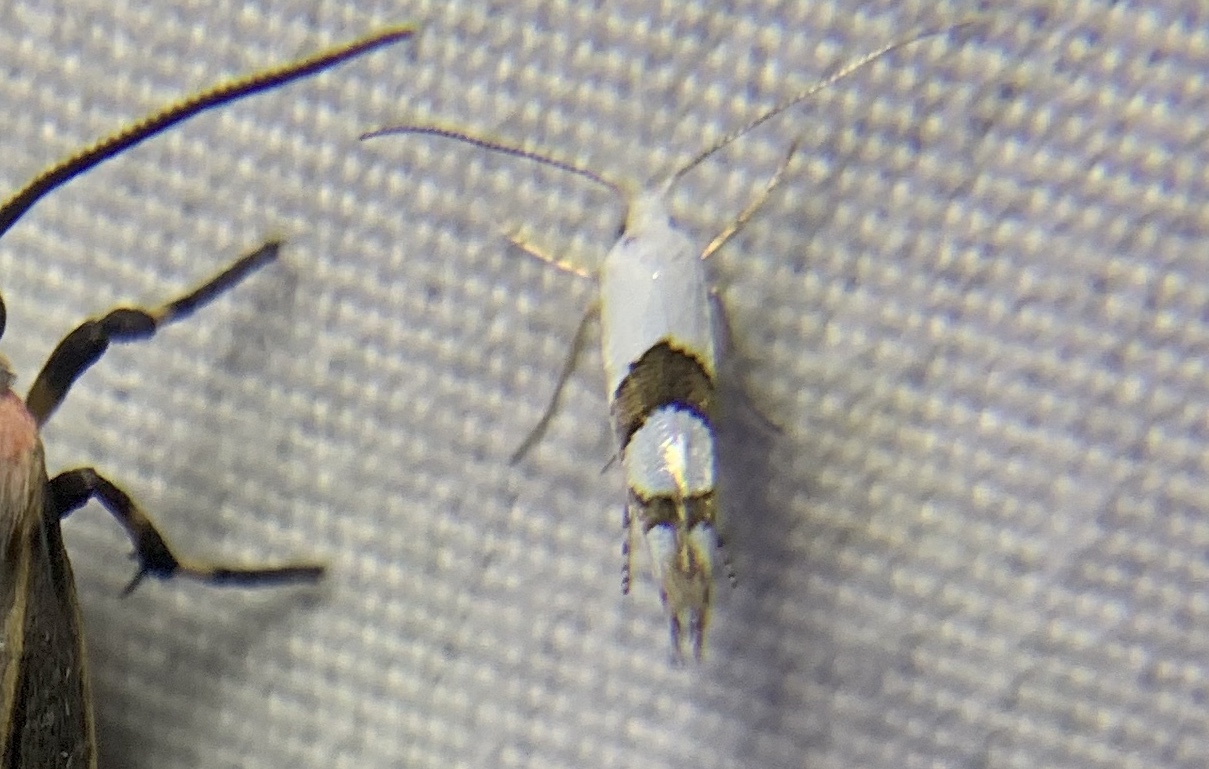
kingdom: Animalia
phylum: Arthropoda
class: Insecta
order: Lepidoptera
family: Argyresthiidae
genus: Argyresthia
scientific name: Argyresthia oreasella
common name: Cherry shoot borer moth
